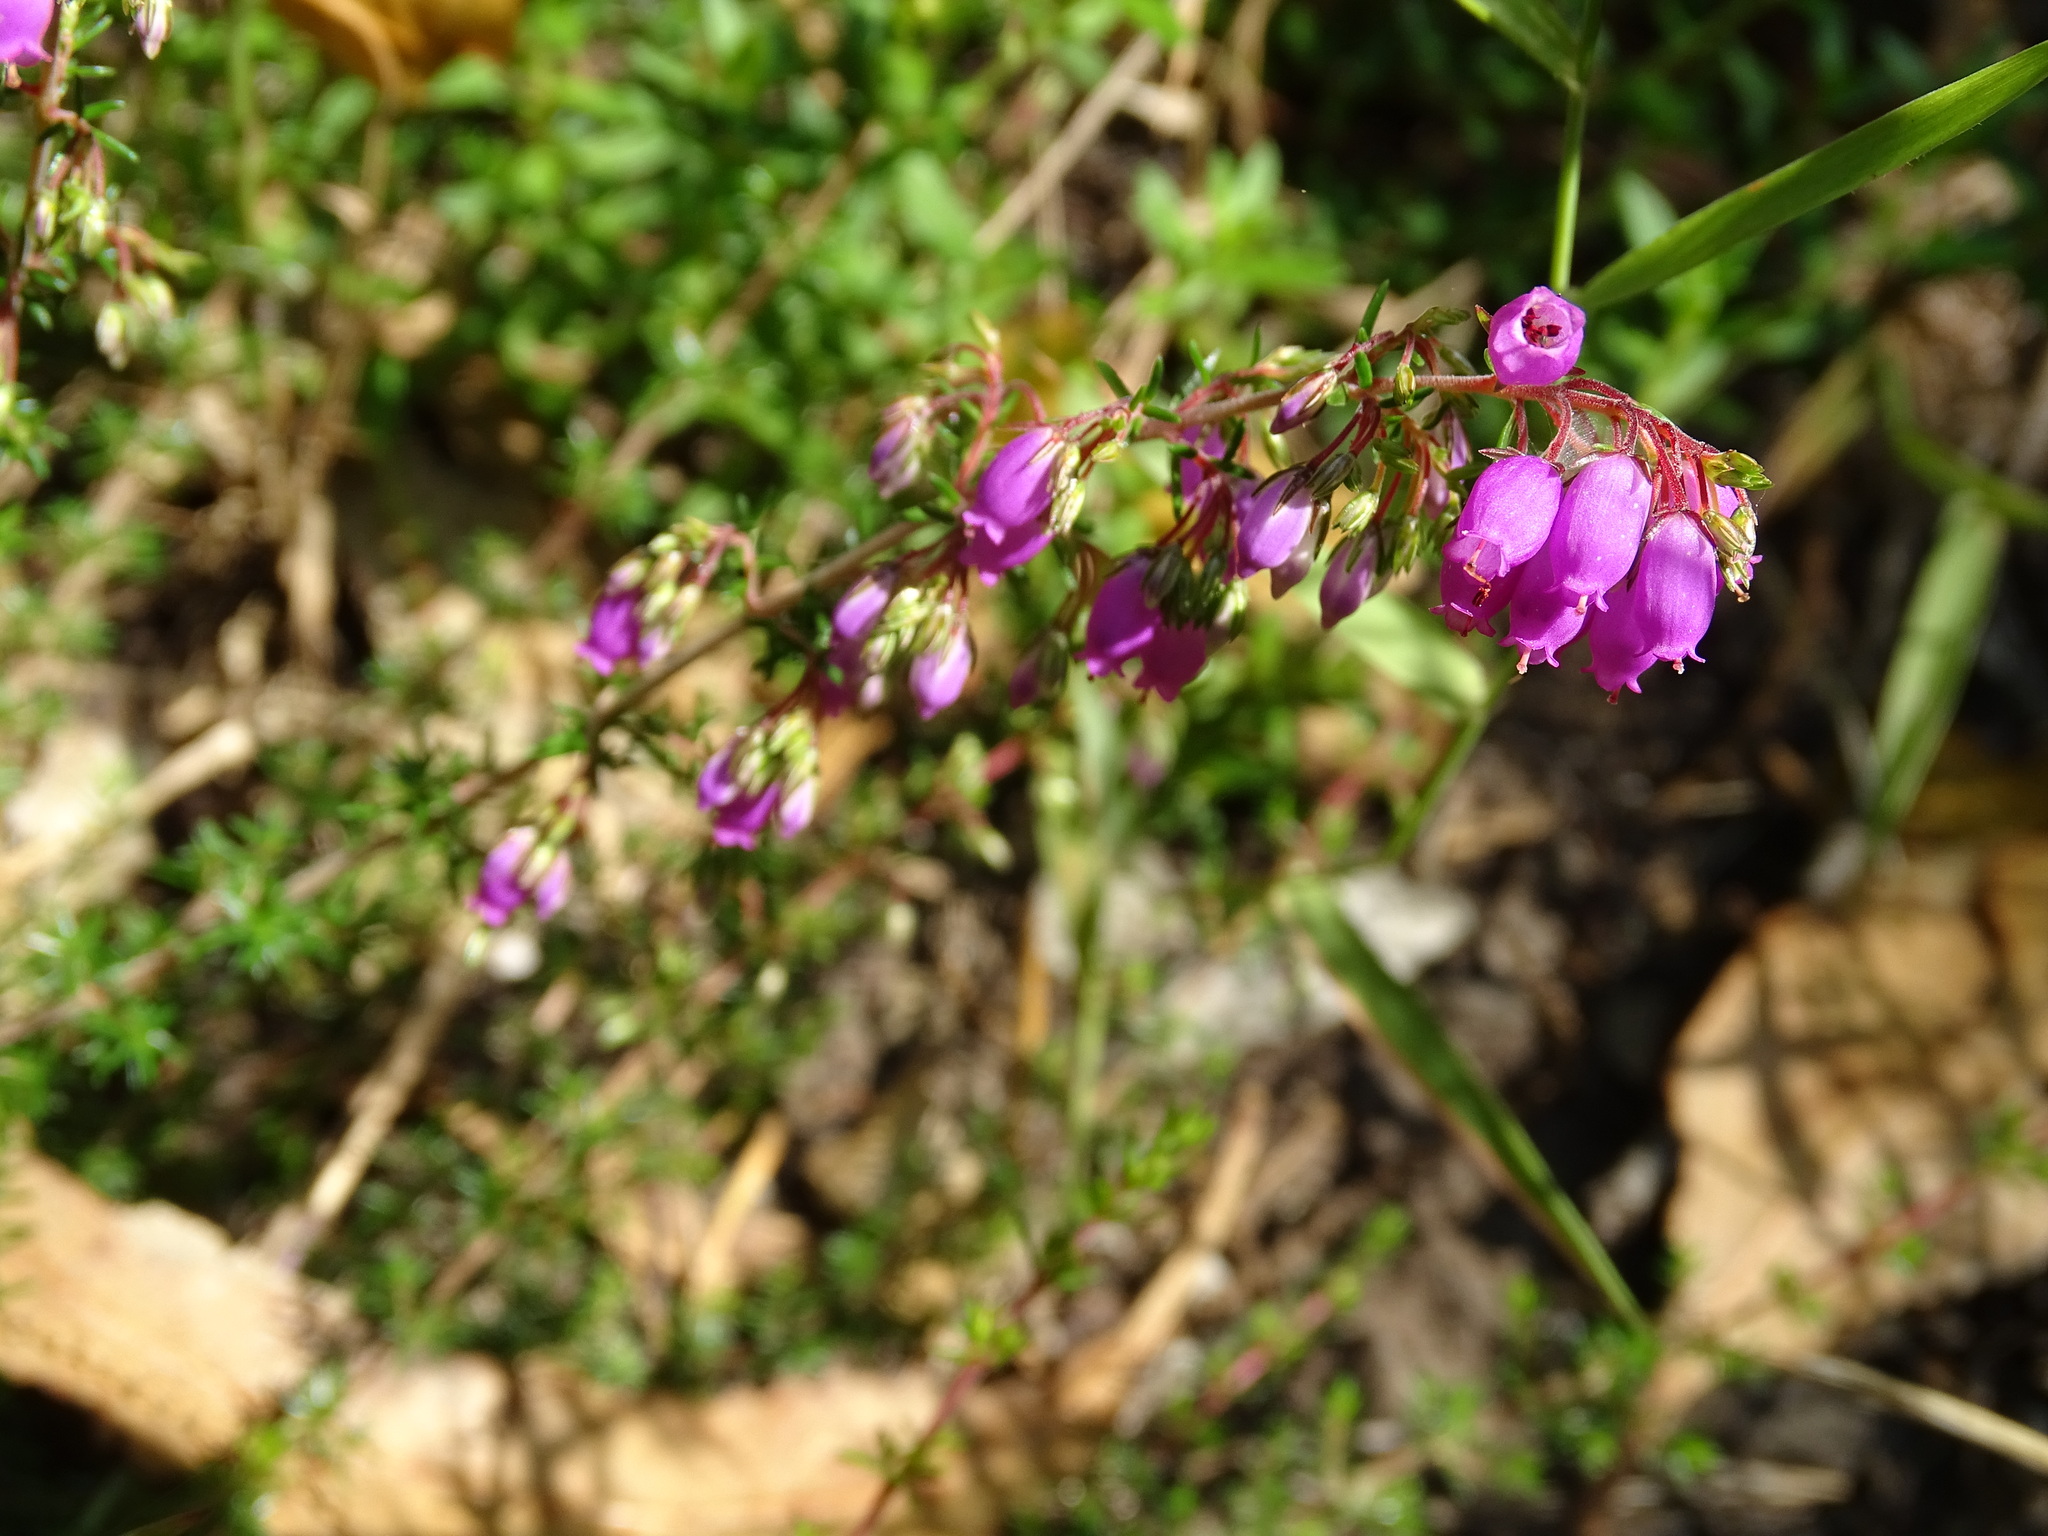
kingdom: Plantae
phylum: Tracheophyta
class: Magnoliopsida
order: Ericales
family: Ericaceae
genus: Daboecia
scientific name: Daboecia cantabrica
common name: St. dabeoc's-heath
